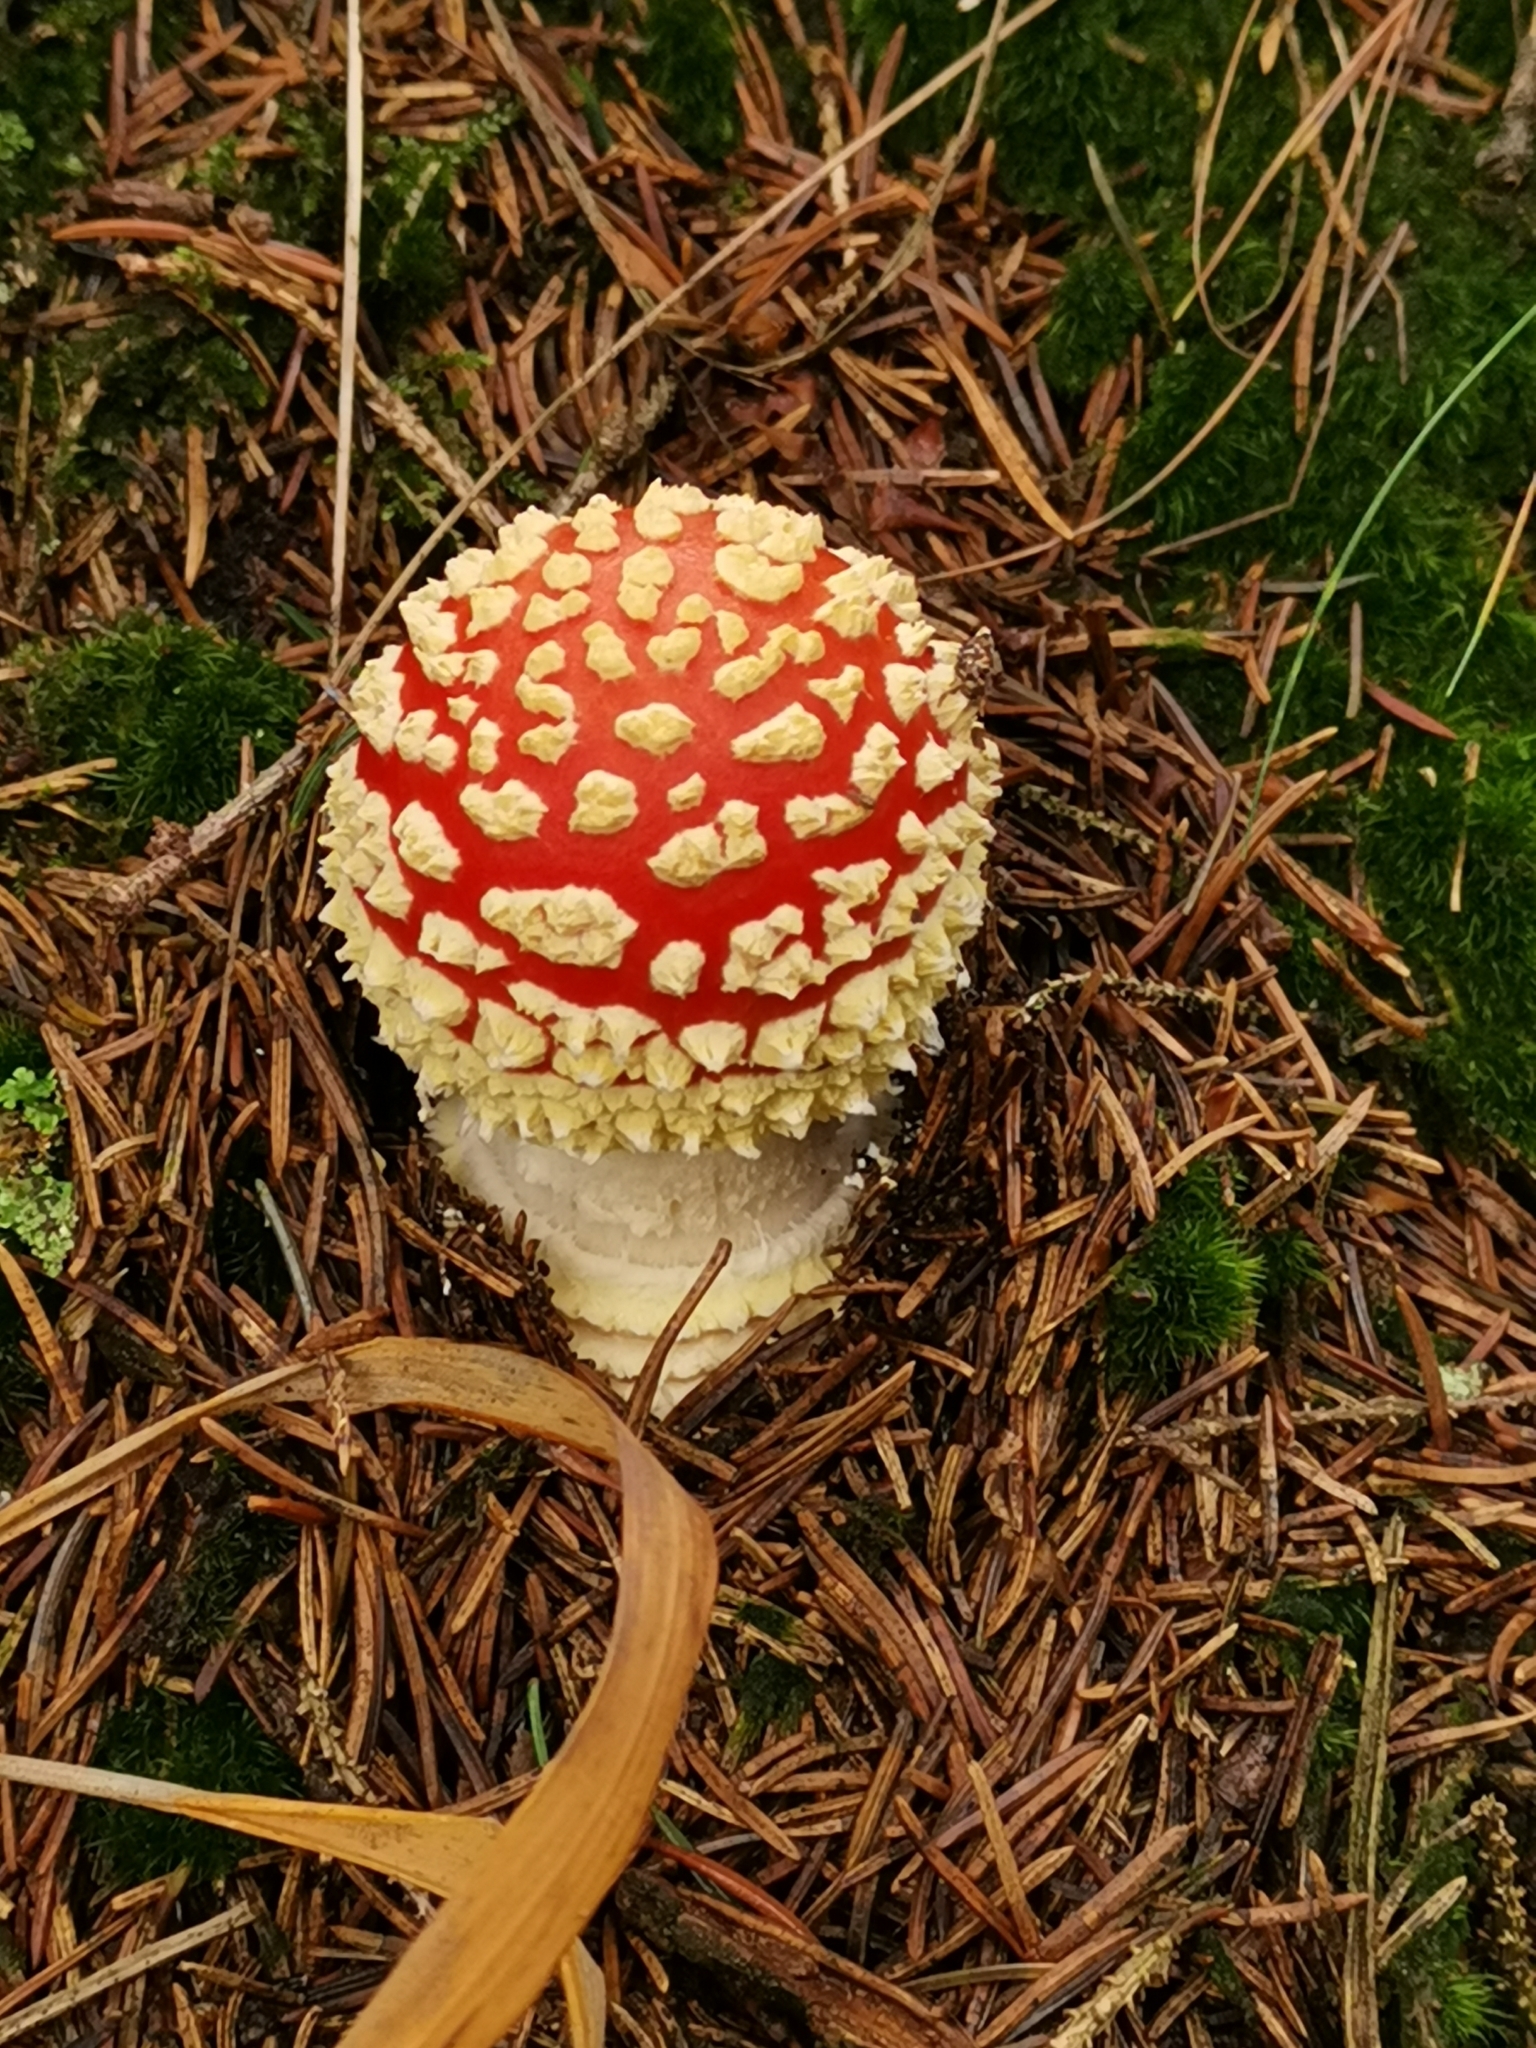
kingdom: Fungi
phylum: Basidiomycota
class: Agaricomycetes
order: Agaricales
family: Amanitaceae
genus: Amanita
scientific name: Amanita muscaria
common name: Fly agaric
